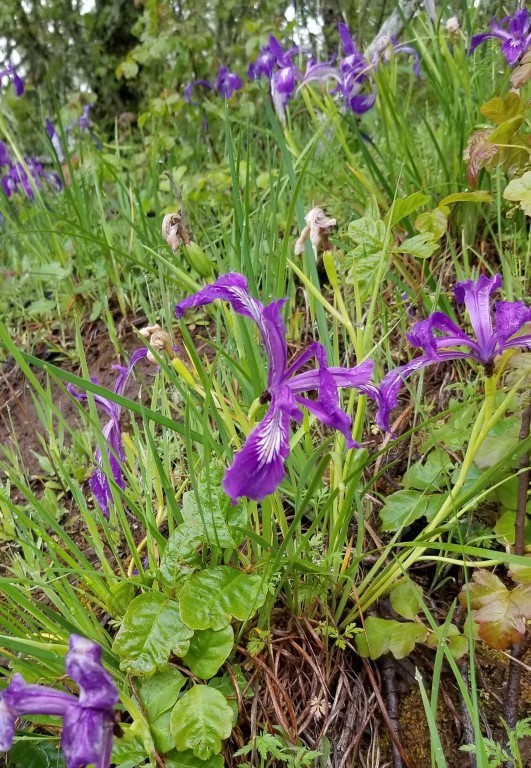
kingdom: Plantae
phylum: Tracheophyta
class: Liliopsida
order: Asparagales
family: Iridaceae
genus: Iris
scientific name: Iris tenax
